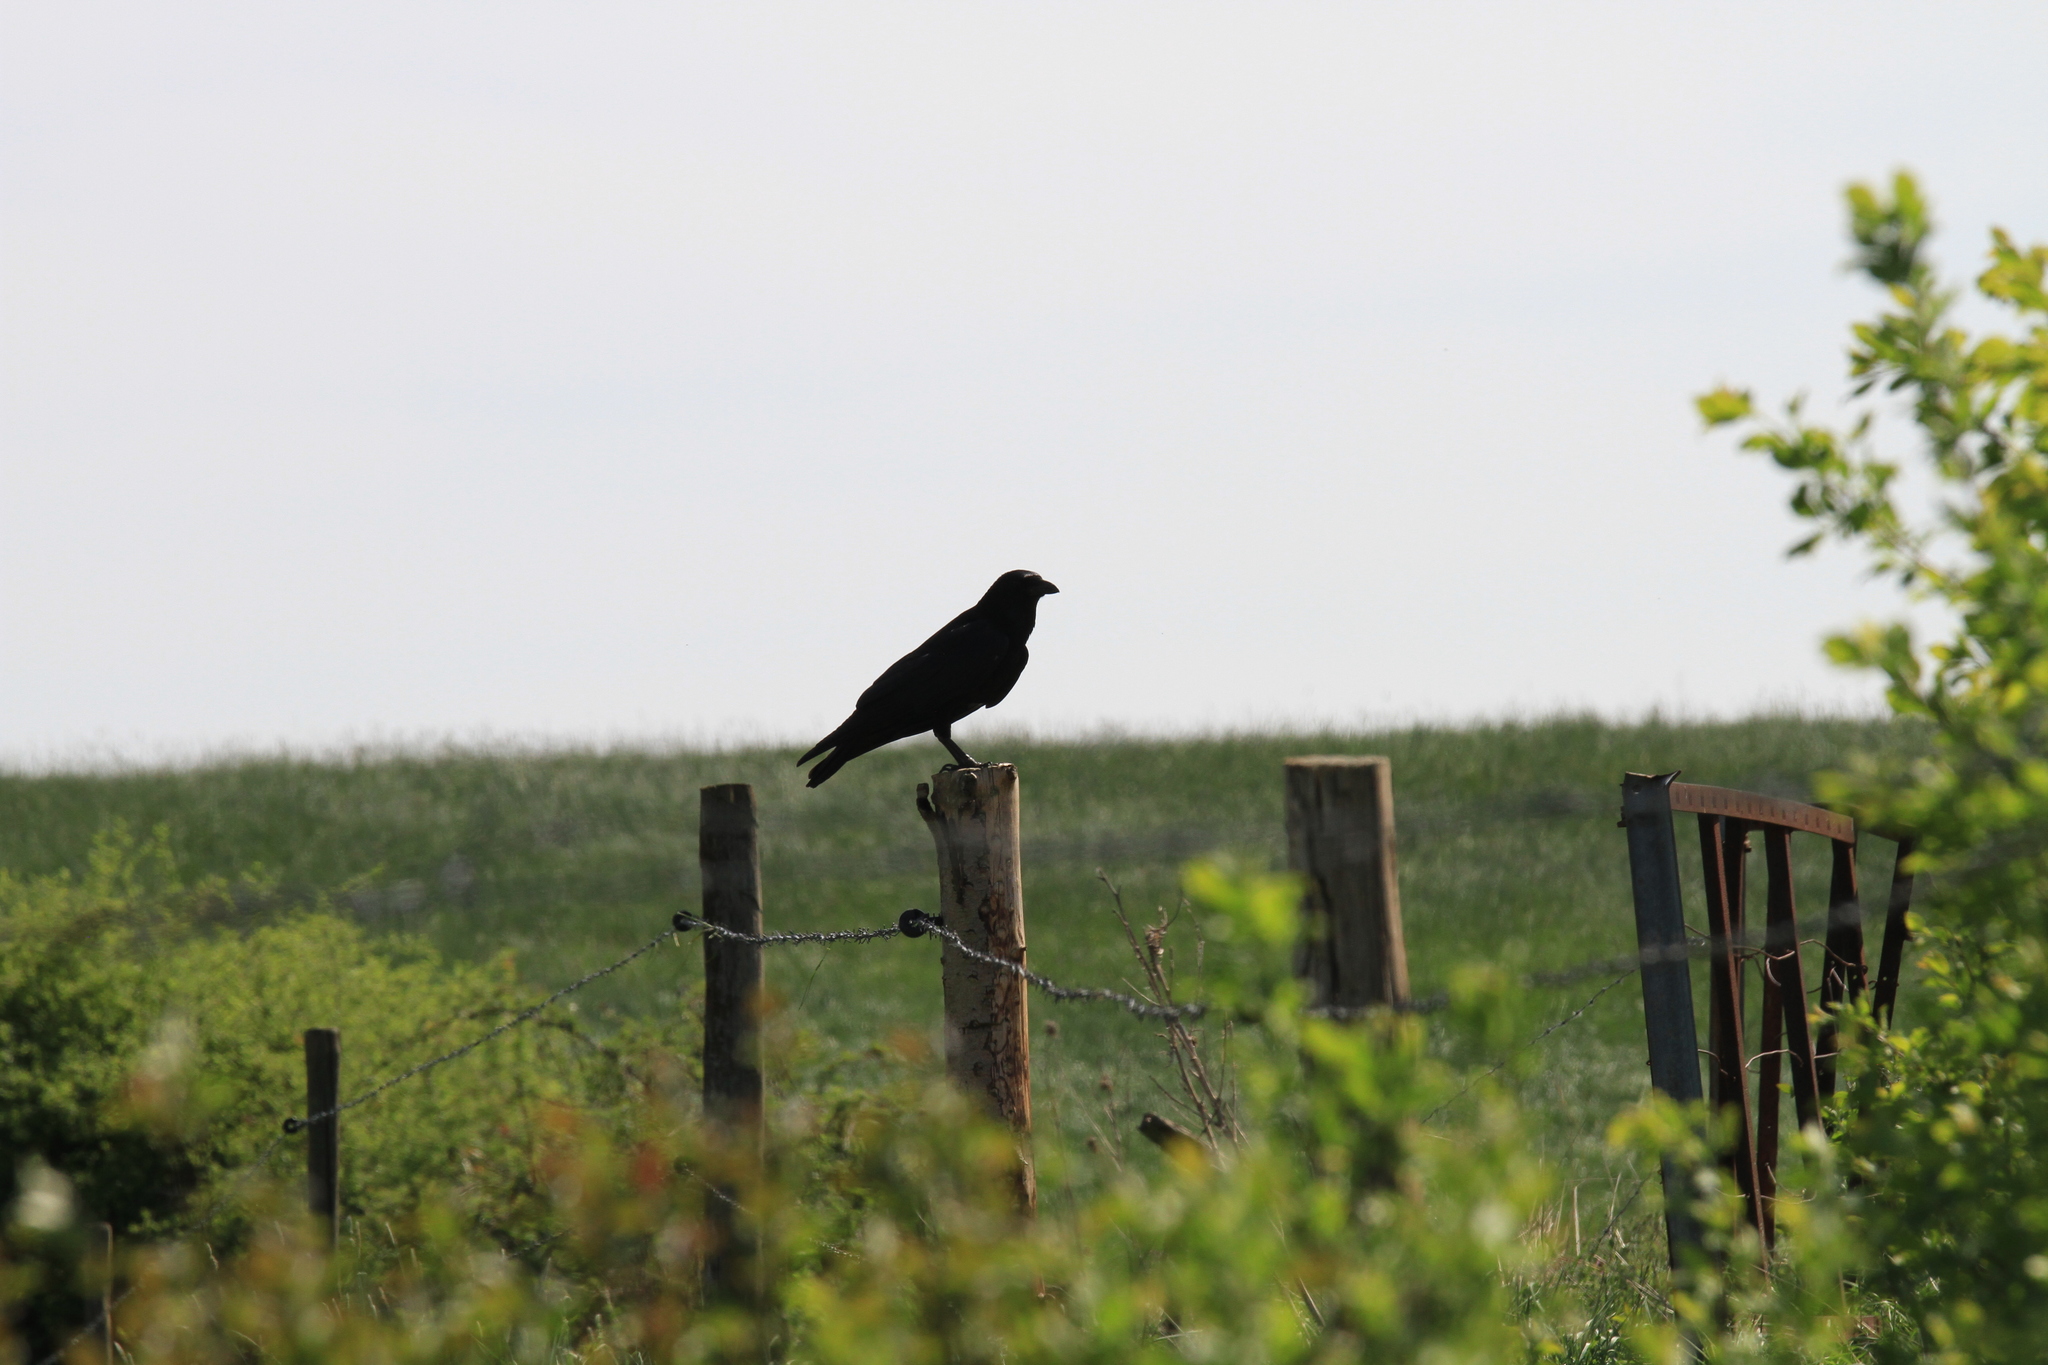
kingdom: Animalia
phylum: Chordata
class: Aves
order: Passeriformes
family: Corvidae
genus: Corvus
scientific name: Corvus corone
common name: Carrion crow
